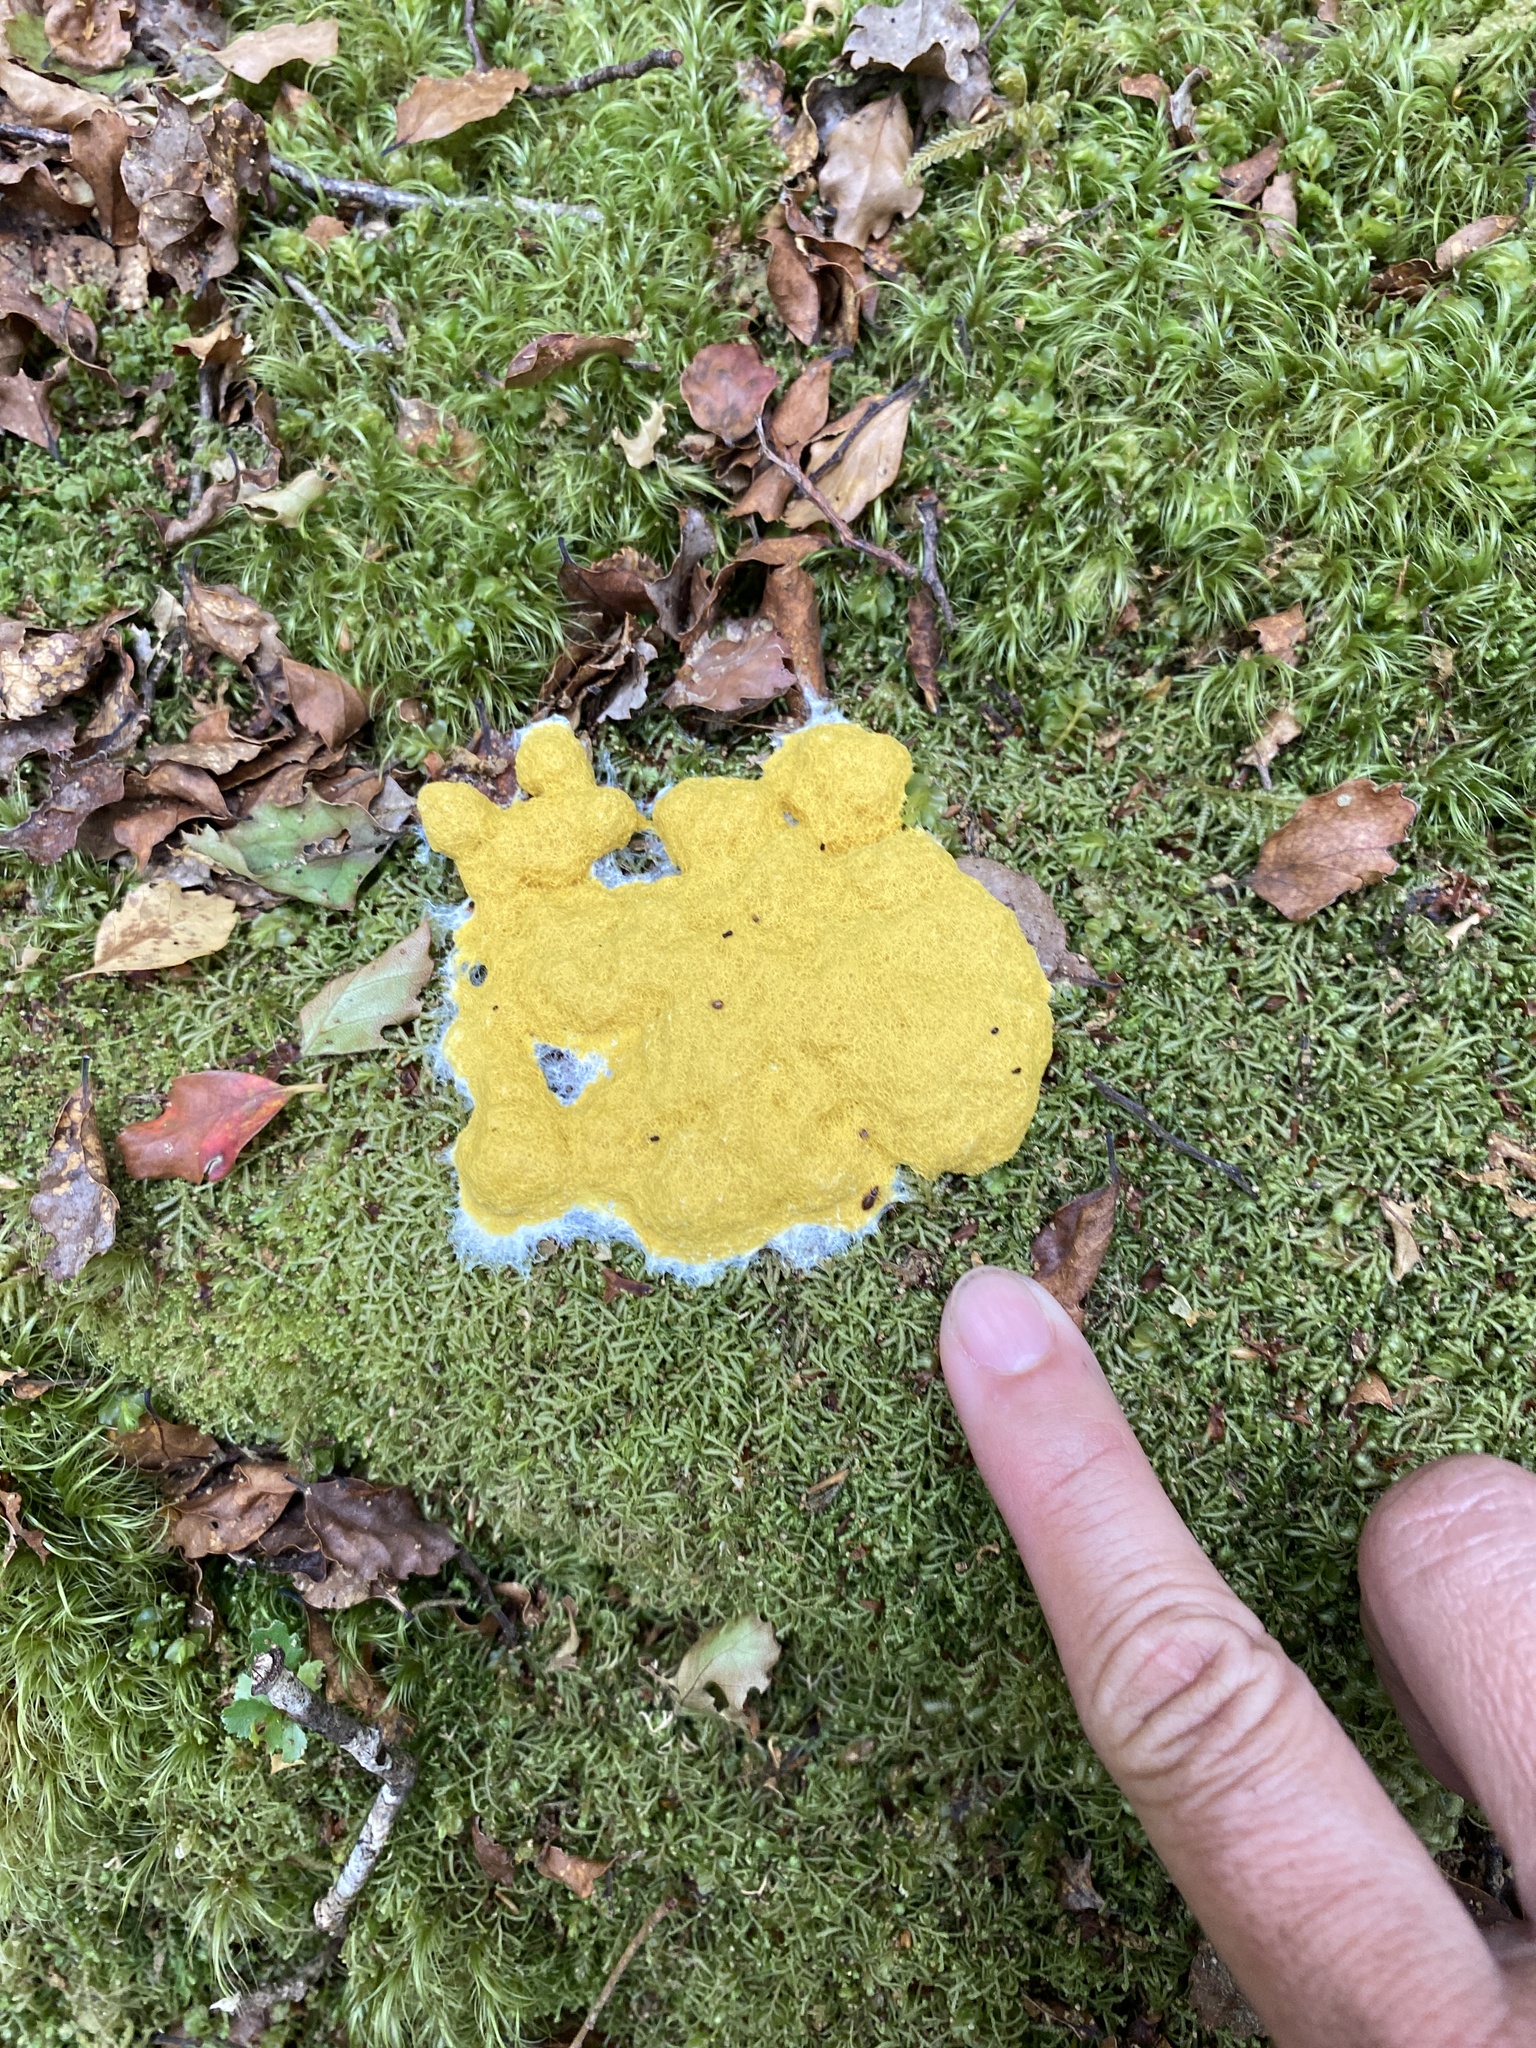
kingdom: Protozoa
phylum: Mycetozoa
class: Myxomycetes
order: Physarales
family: Physaraceae
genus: Fuligo
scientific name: Fuligo septica
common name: Dog vomit slime mold
